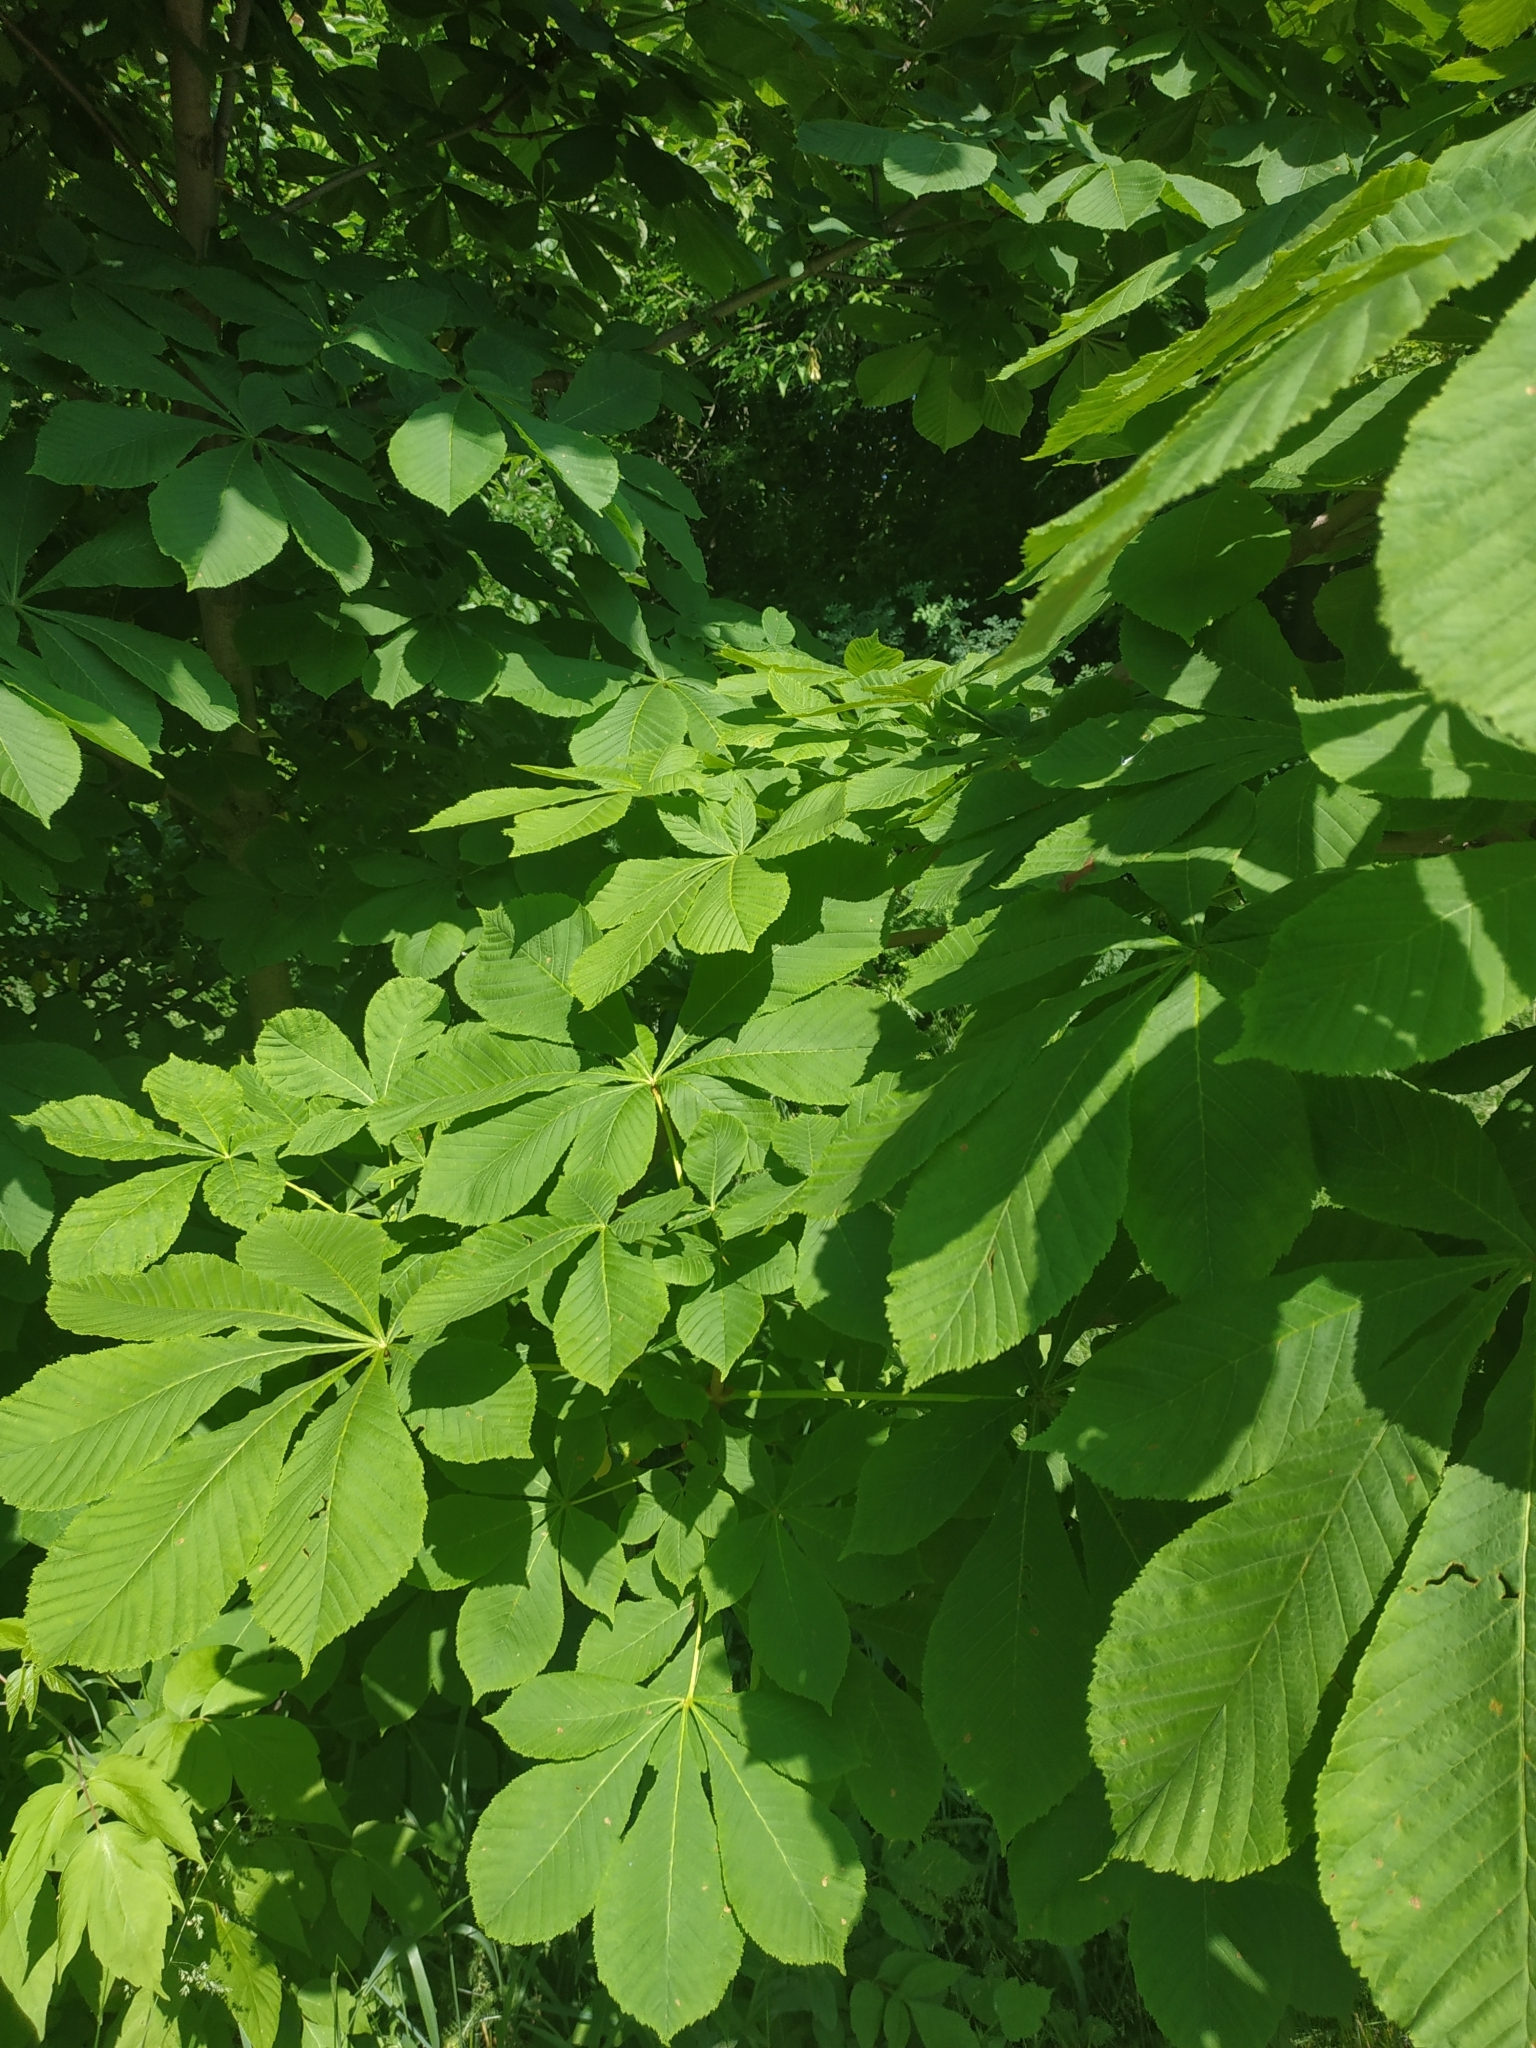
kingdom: Plantae
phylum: Tracheophyta
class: Magnoliopsida
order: Sapindales
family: Sapindaceae
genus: Aesculus
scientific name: Aesculus hippocastanum
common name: Horse-chestnut
